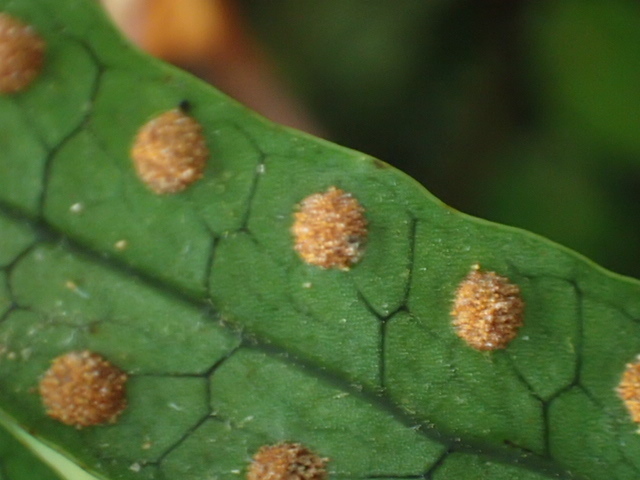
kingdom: Plantae
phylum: Tracheophyta
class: Polypodiopsida
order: Polypodiales
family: Polypodiaceae
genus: Lecanopteris
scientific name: Lecanopteris pustulata
